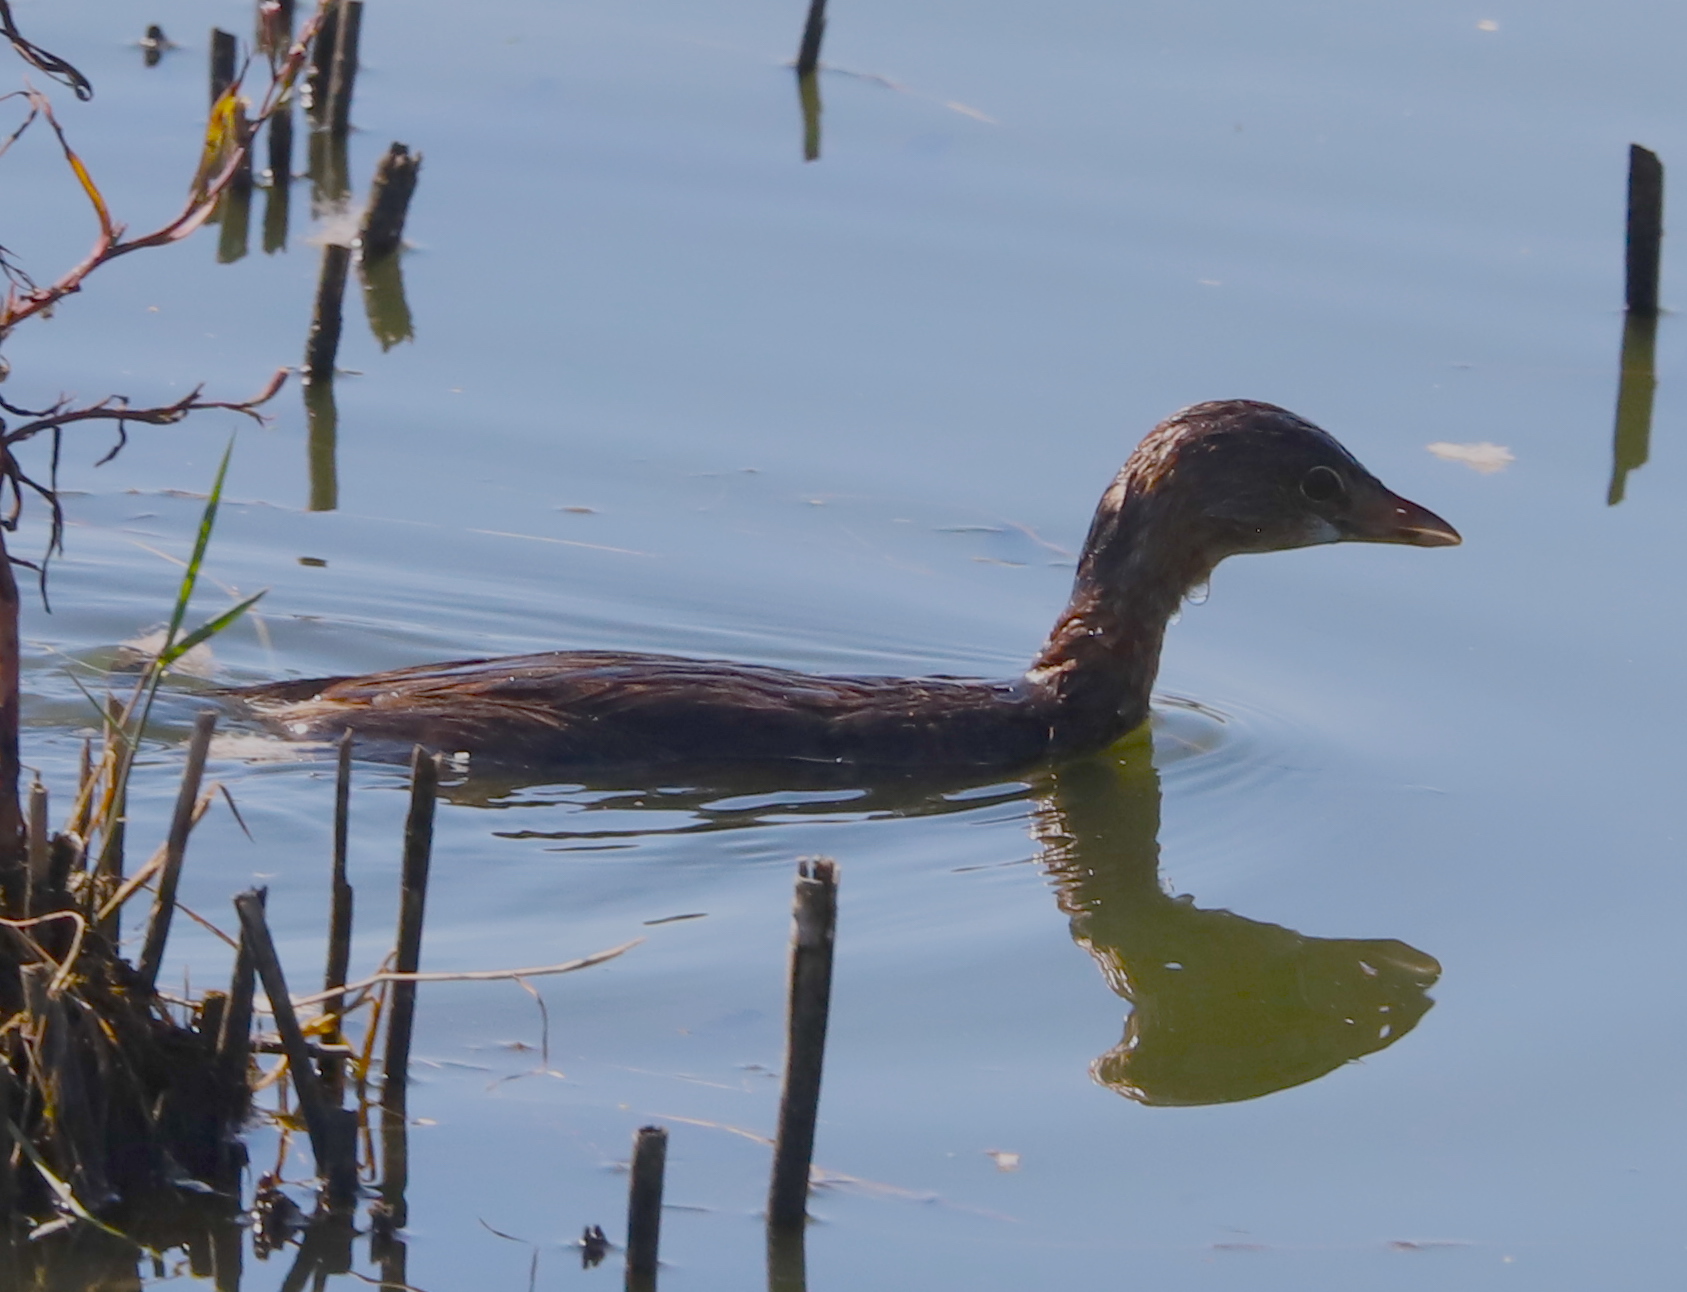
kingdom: Animalia
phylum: Chordata
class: Aves
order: Podicipediformes
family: Podicipedidae
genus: Podilymbus
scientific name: Podilymbus podiceps
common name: Pied-billed grebe
